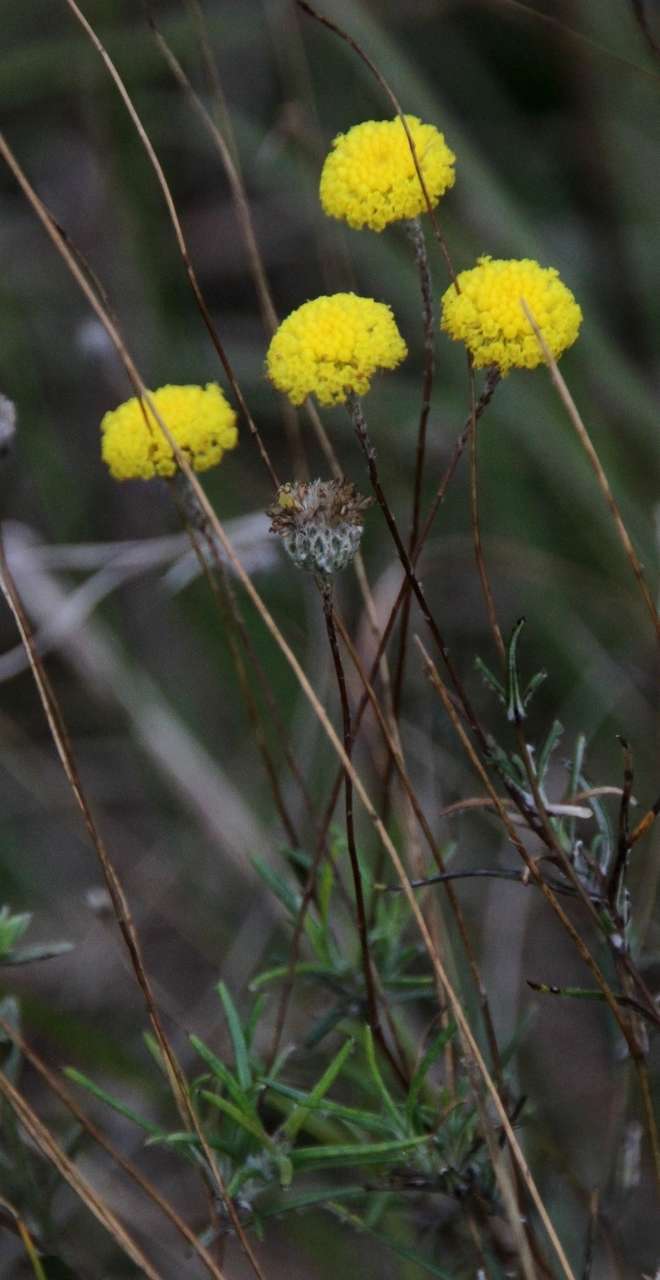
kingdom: Plantae
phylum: Tracheophyta
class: Magnoliopsida
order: Asterales
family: Asteraceae
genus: Leptorhynchos
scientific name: Leptorhynchos tenuifolius
